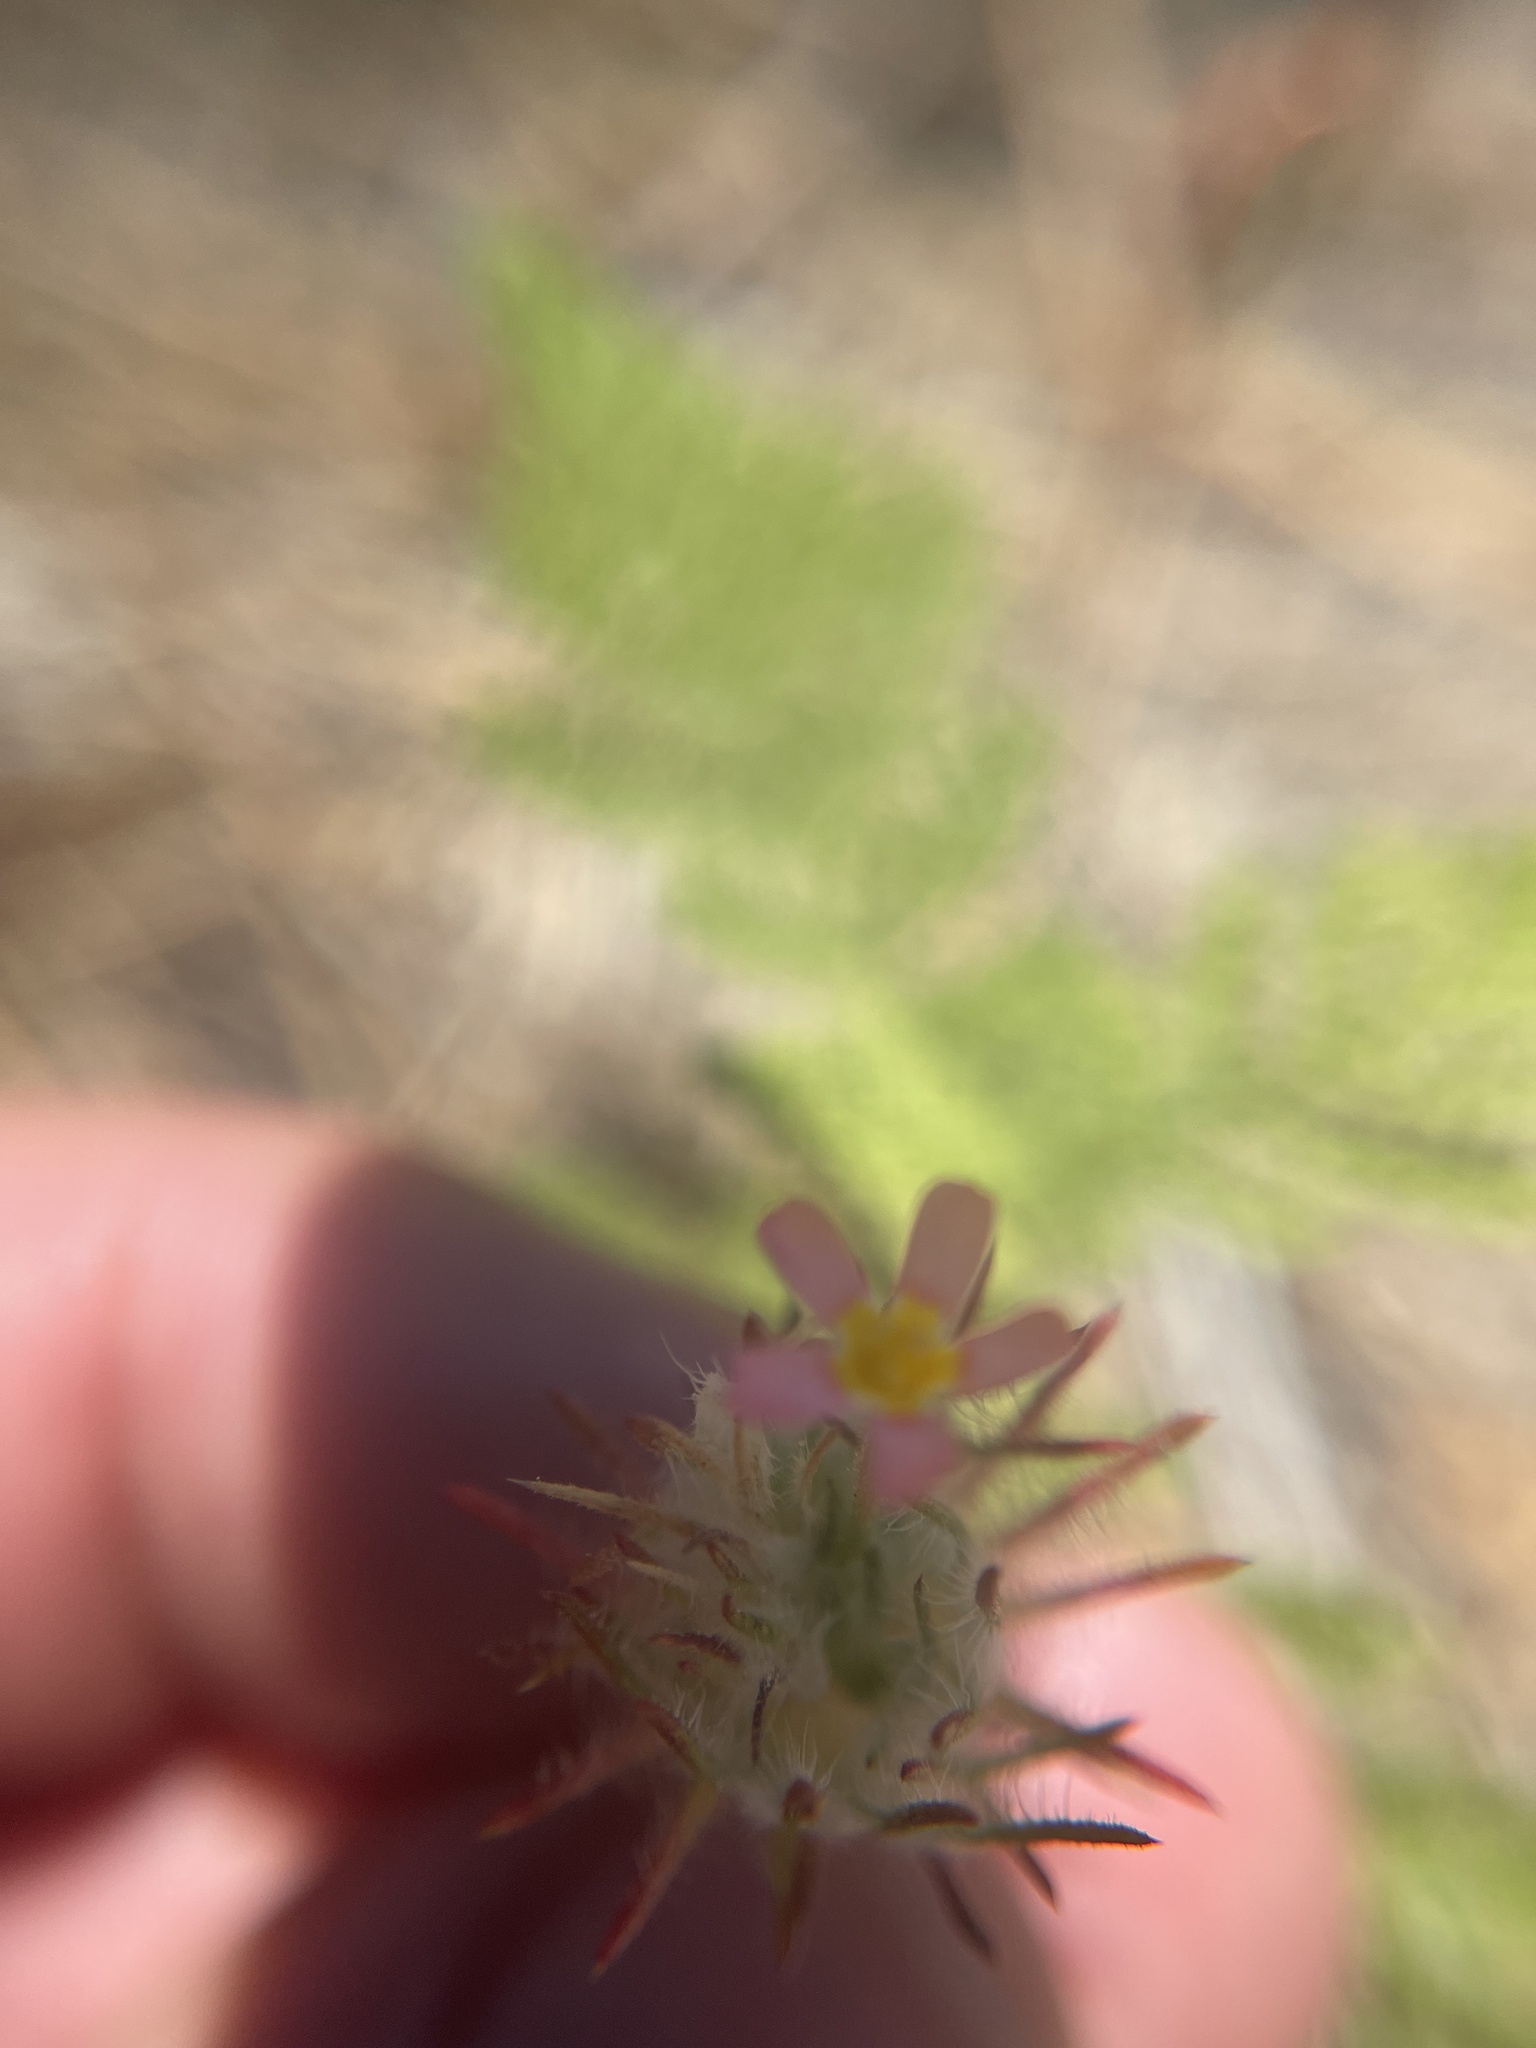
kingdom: Plantae
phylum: Tracheophyta
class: Magnoliopsida
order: Ericales
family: Polemoniaceae
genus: Leptosiphon
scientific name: Leptosiphon ciliatus
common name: Whiskerbrush
